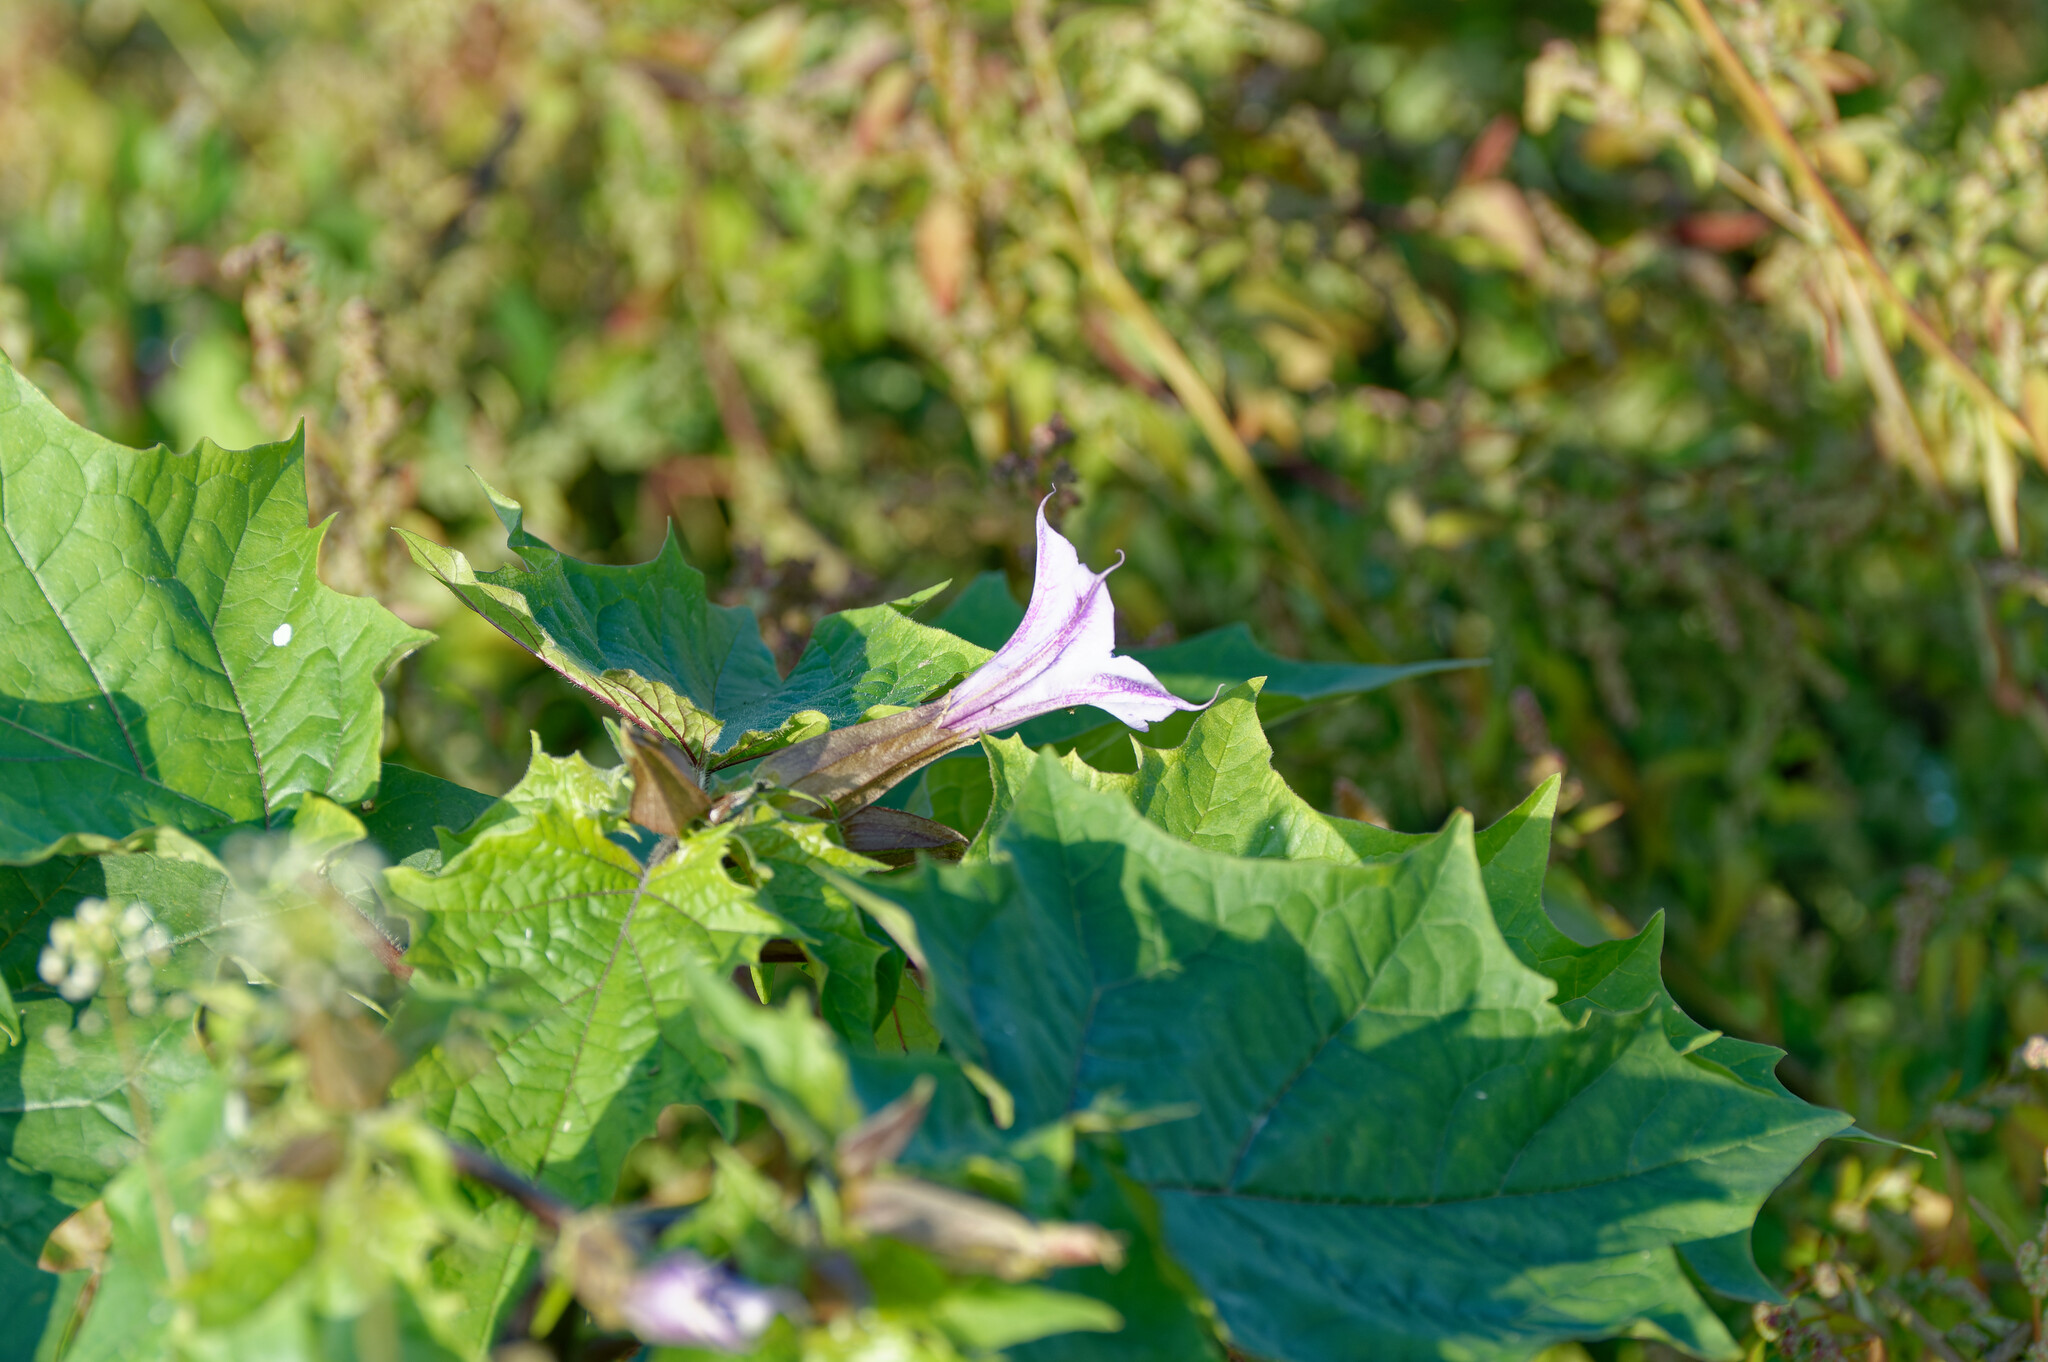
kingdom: Plantae
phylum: Tracheophyta
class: Magnoliopsida
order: Solanales
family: Solanaceae
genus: Datura
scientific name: Datura stramonium
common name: Thorn-apple
